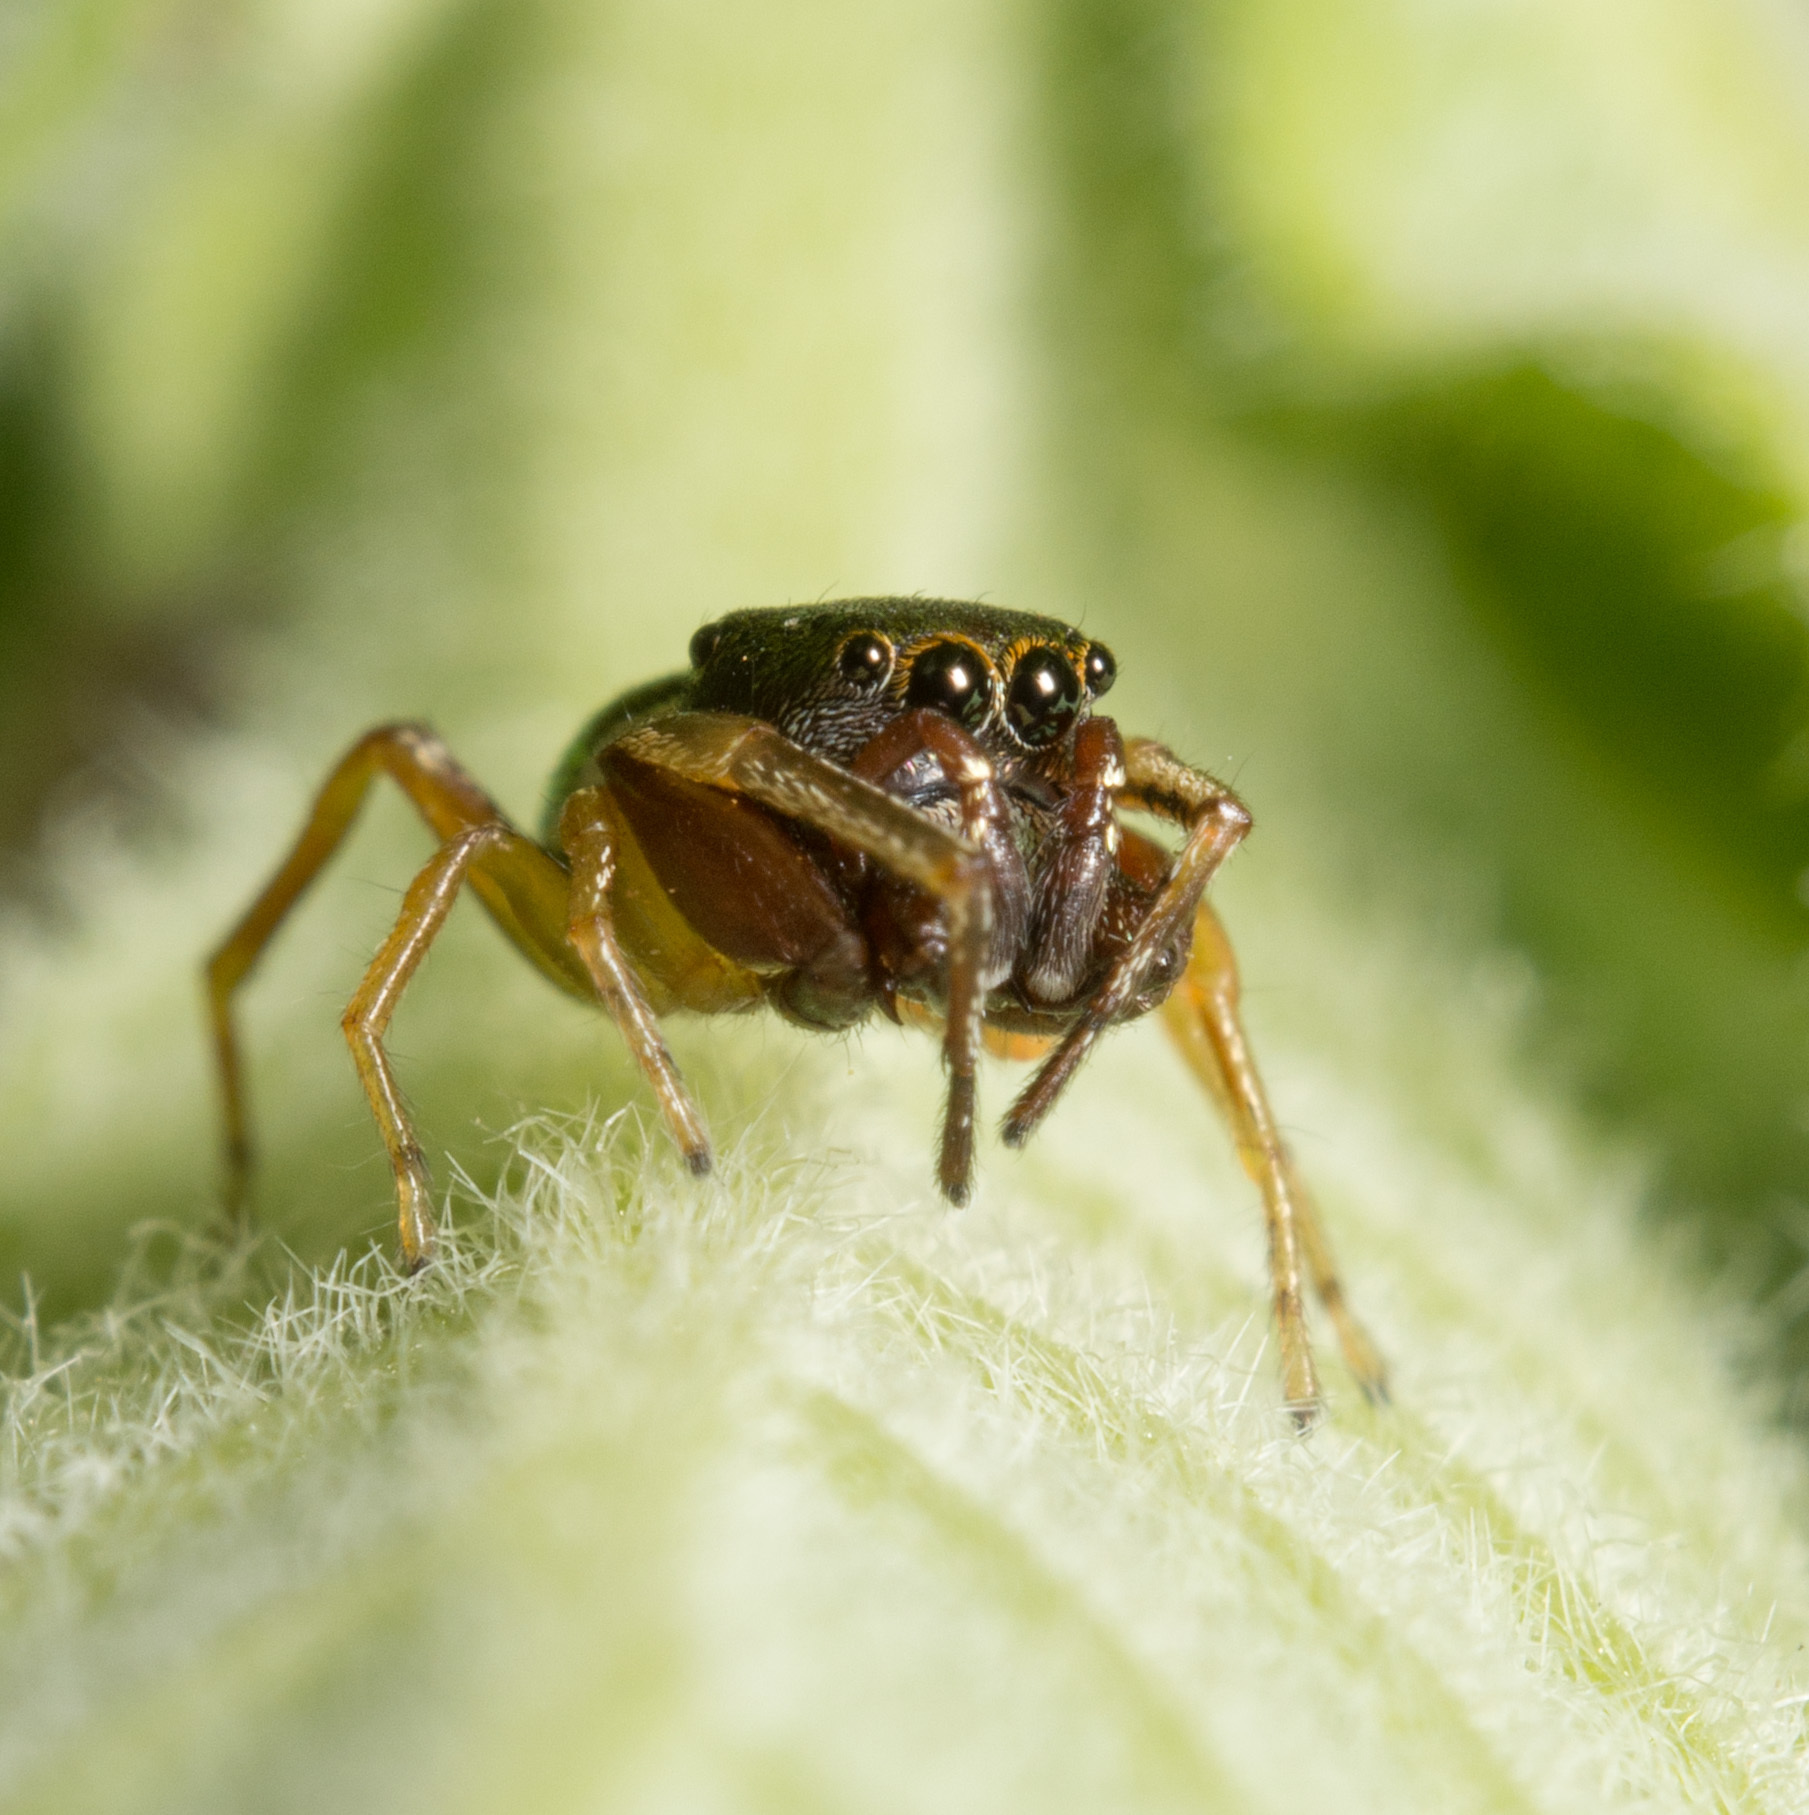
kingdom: Animalia
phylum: Arthropoda
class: Arachnida
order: Araneae
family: Salticidae
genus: Zygoballus
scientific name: Zygoballus rufipes
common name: Jumping spiders
